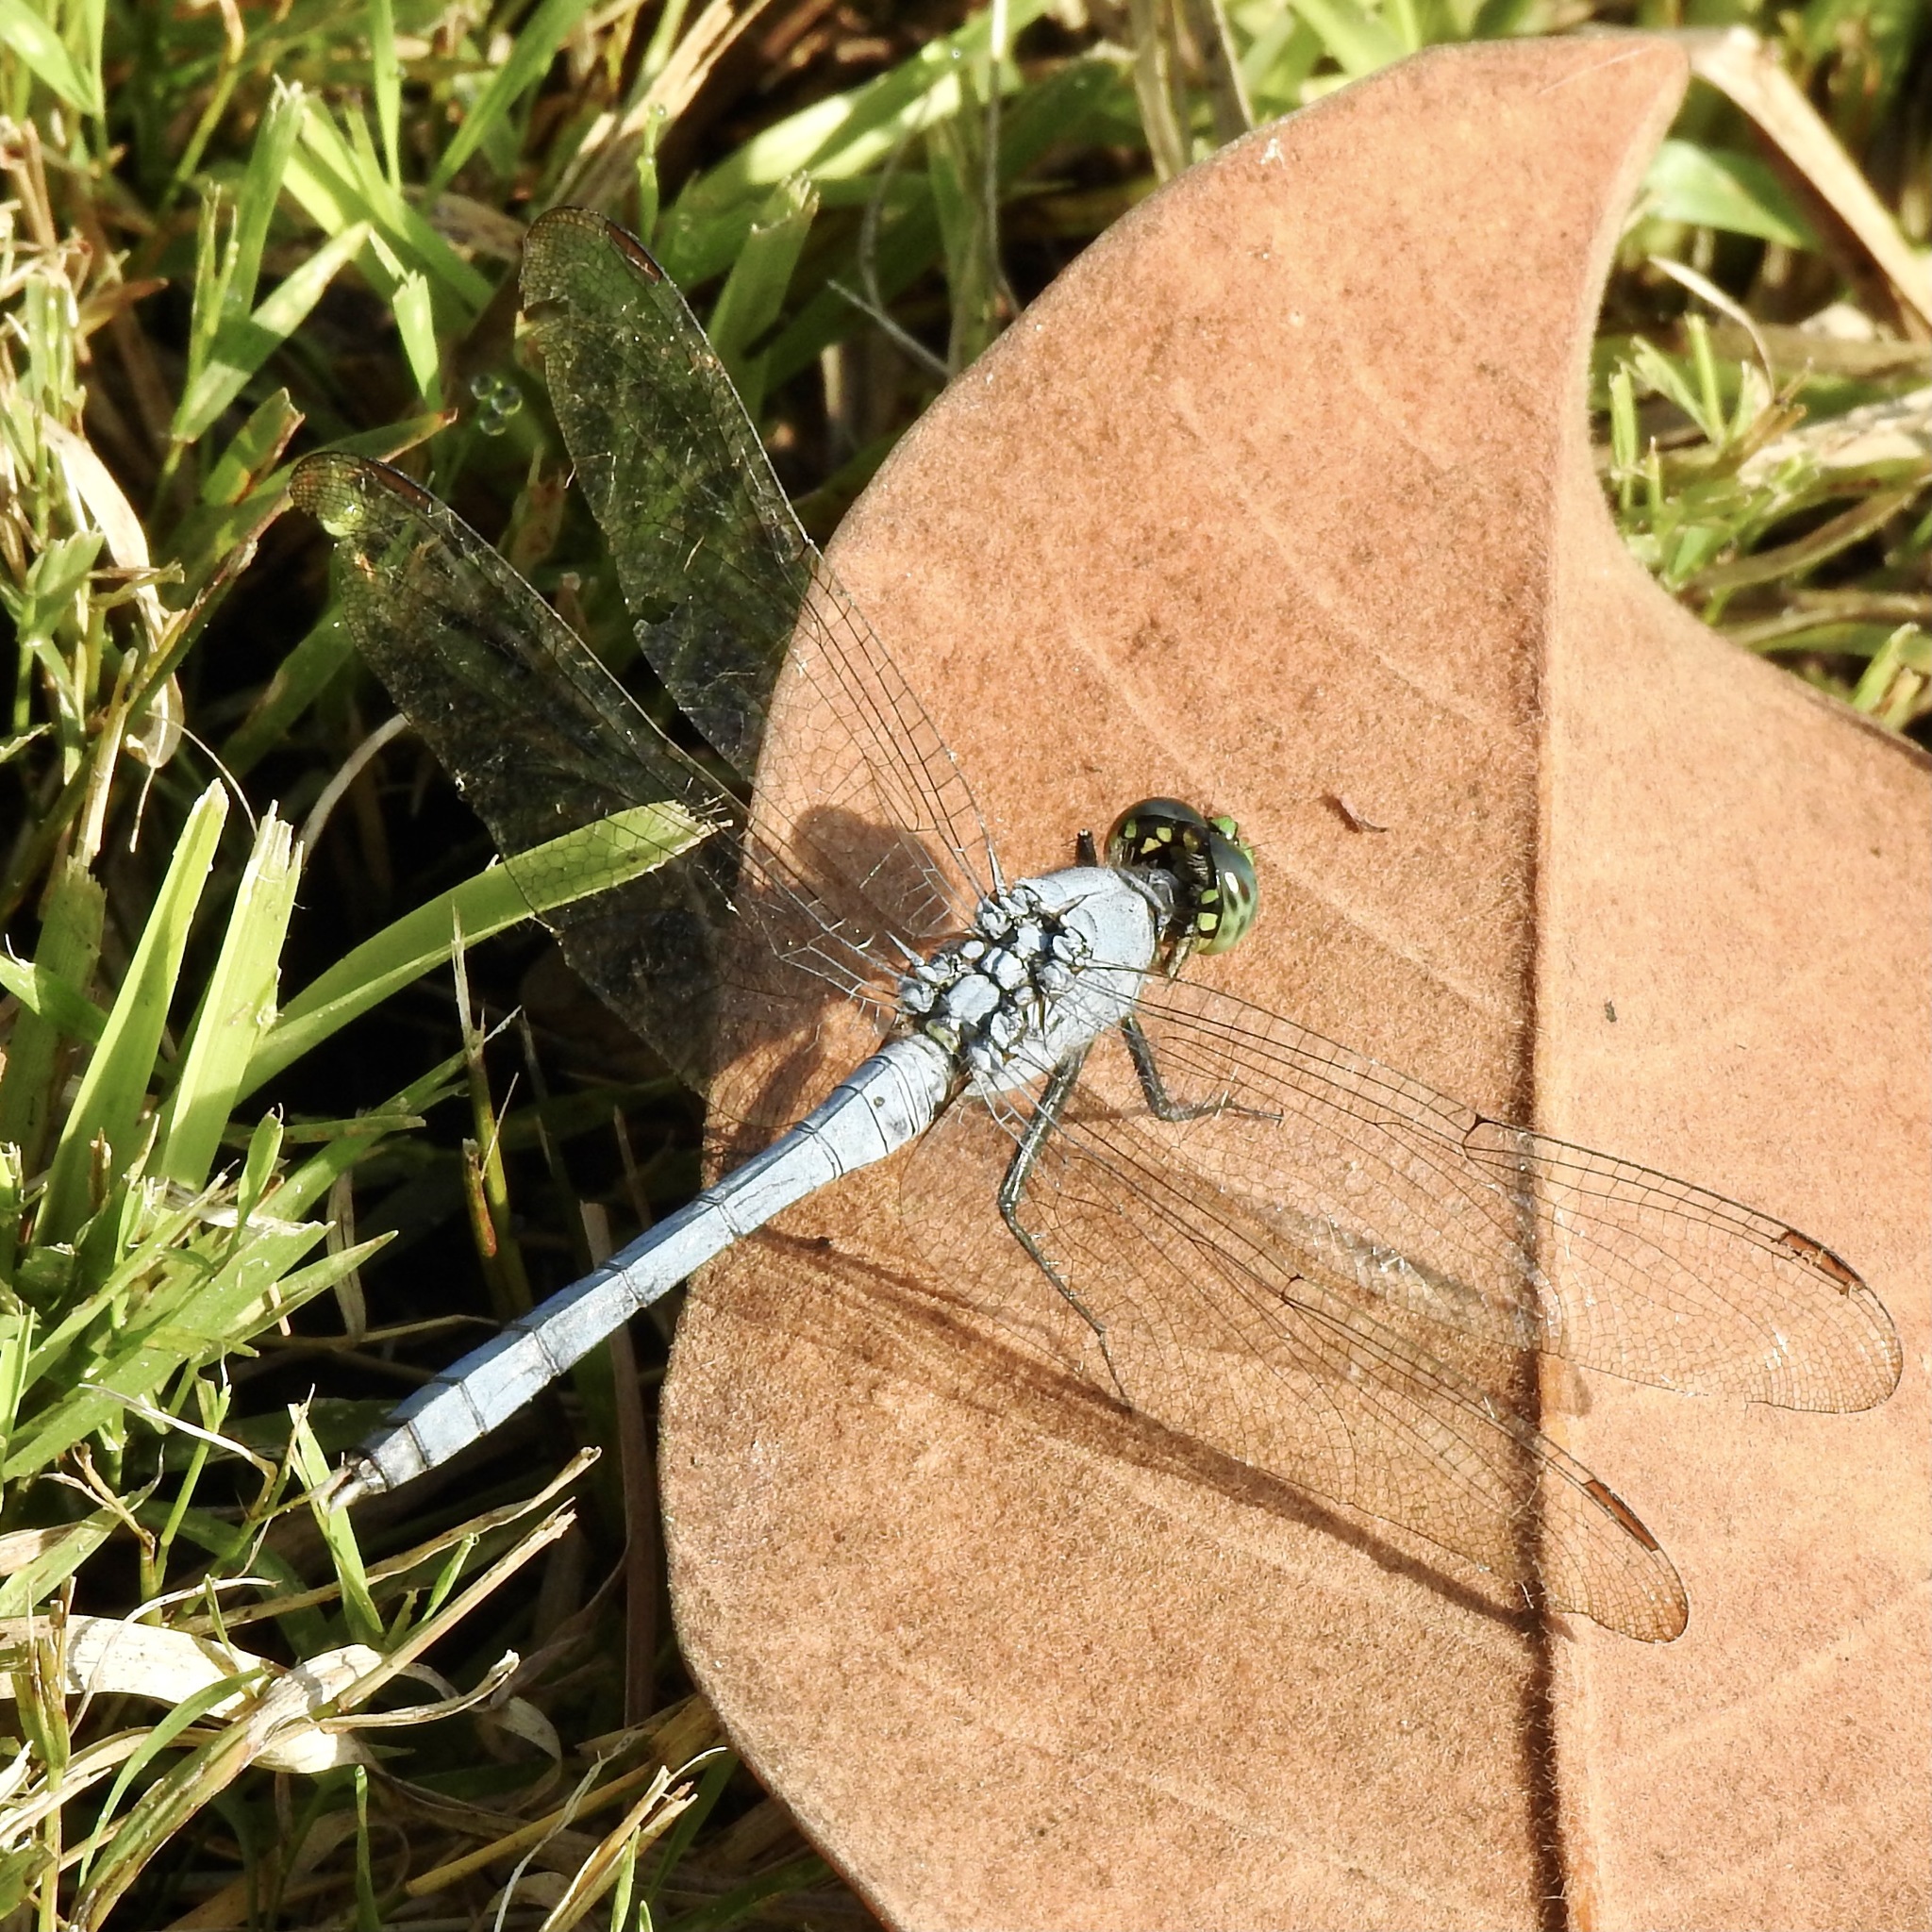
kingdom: Animalia
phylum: Arthropoda
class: Insecta
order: Odonata
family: Libellulidae
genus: Erythemis
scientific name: Erythemis simplicicollis
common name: Eastern pondhawk
